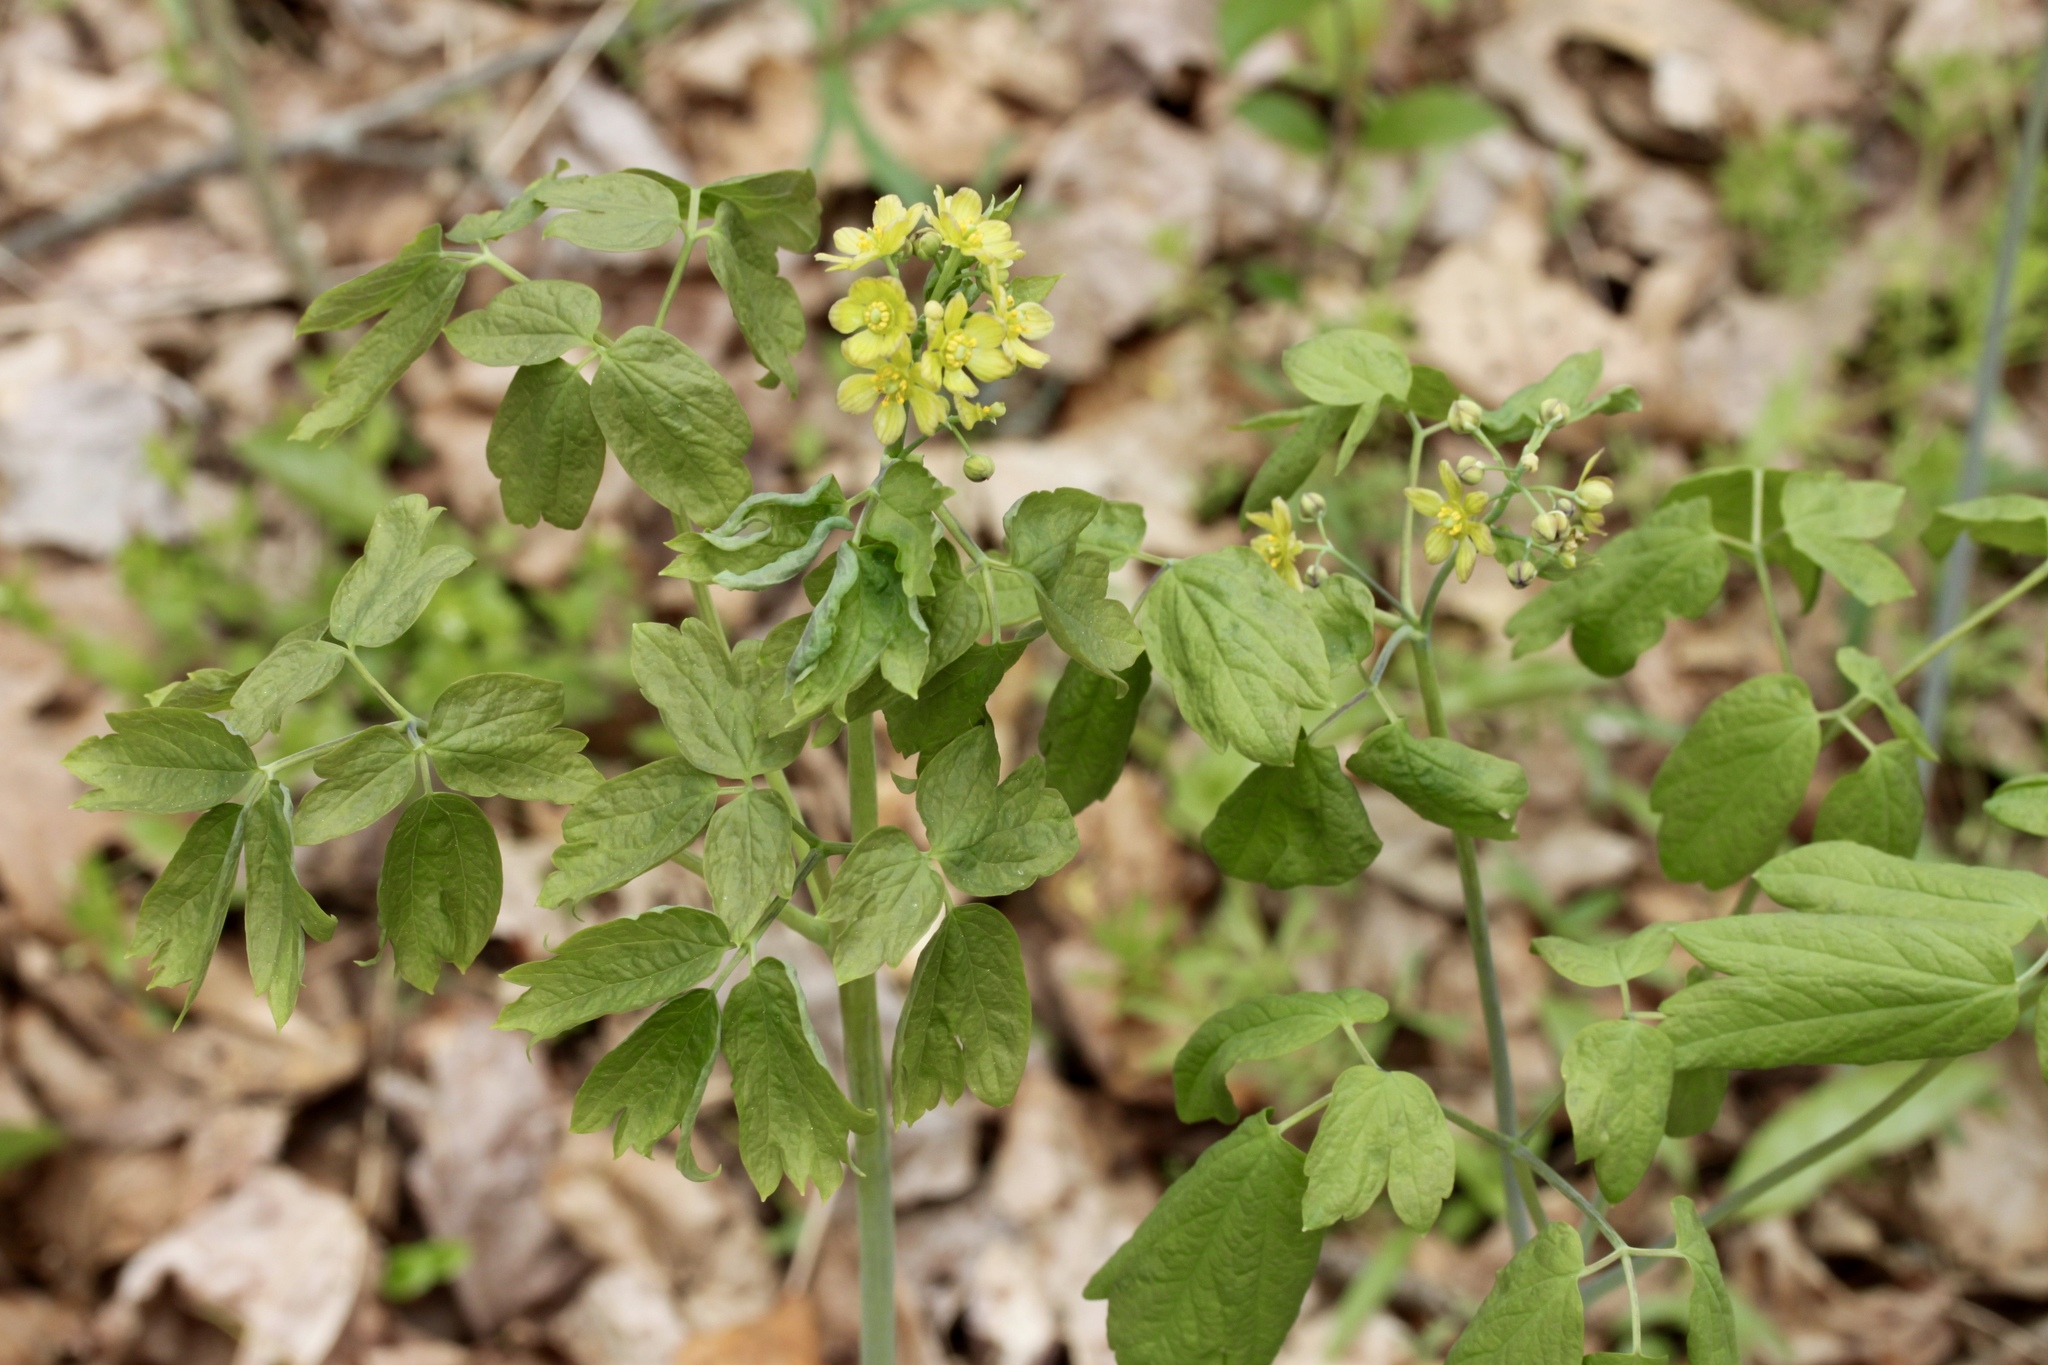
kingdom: Plantae
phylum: Tracheophyta
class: Magnoliopsida
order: Ranunculales
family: Berberidaceae
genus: Caulophyllum
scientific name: Caulophyllum thalictroides
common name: Blue cohosh
